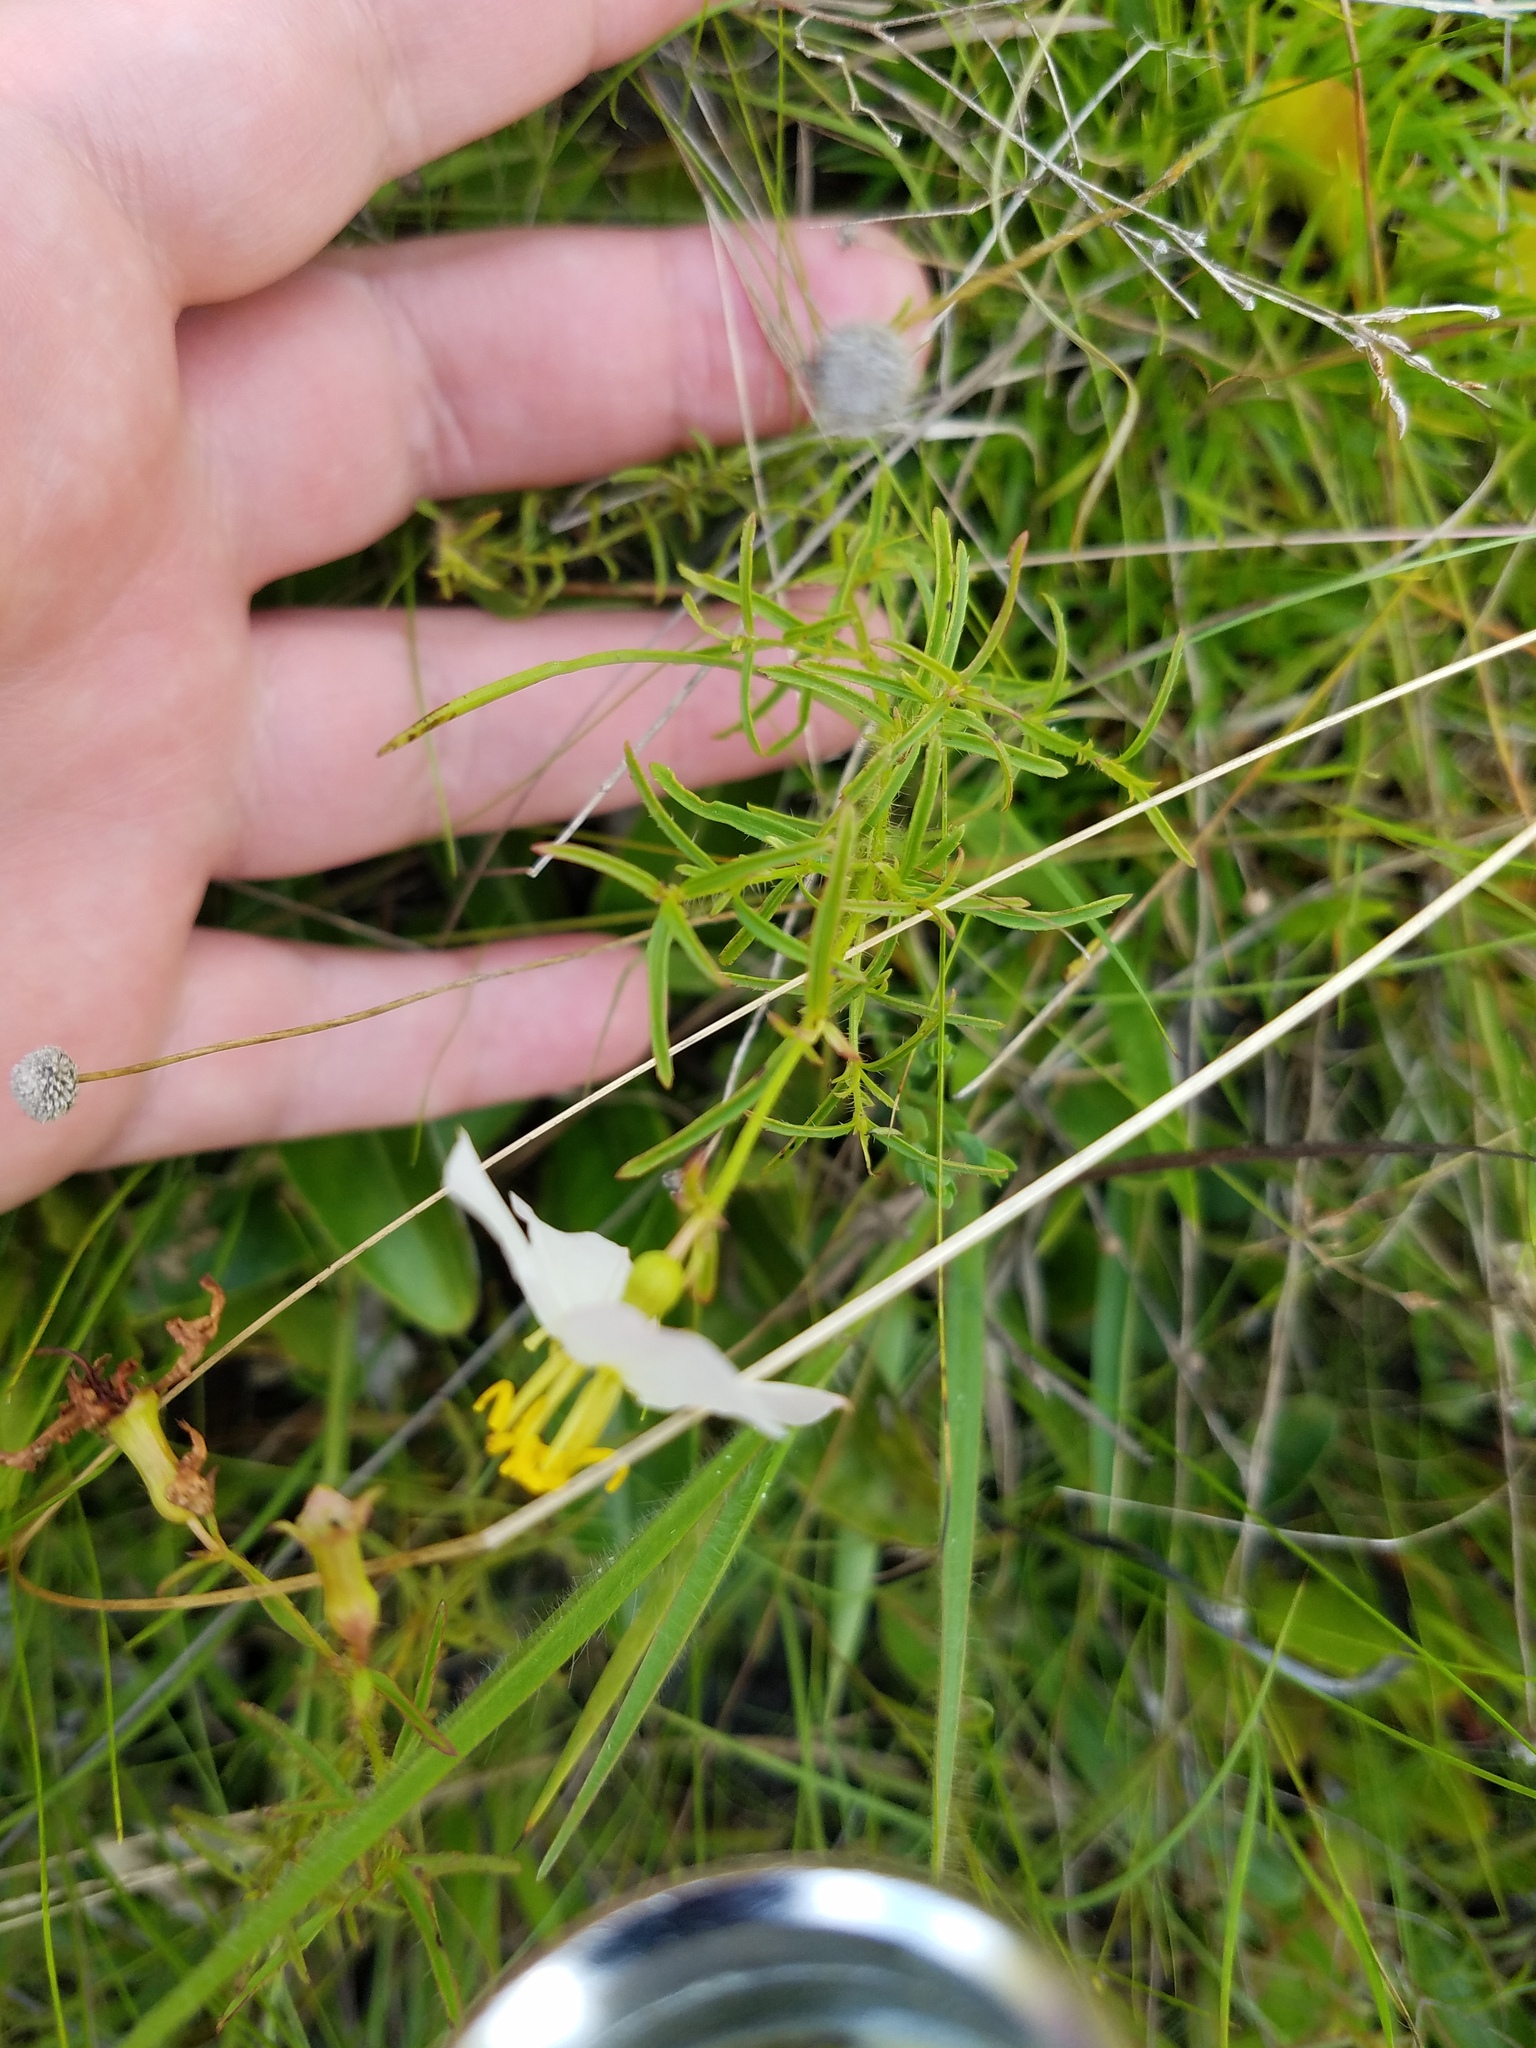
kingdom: Plantae
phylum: Tracheophyta
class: Magnoliopsida
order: Myrtales
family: Melastomataceae
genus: Rhexia
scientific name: Rhexia mariana
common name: Dull meadow-pitcher
